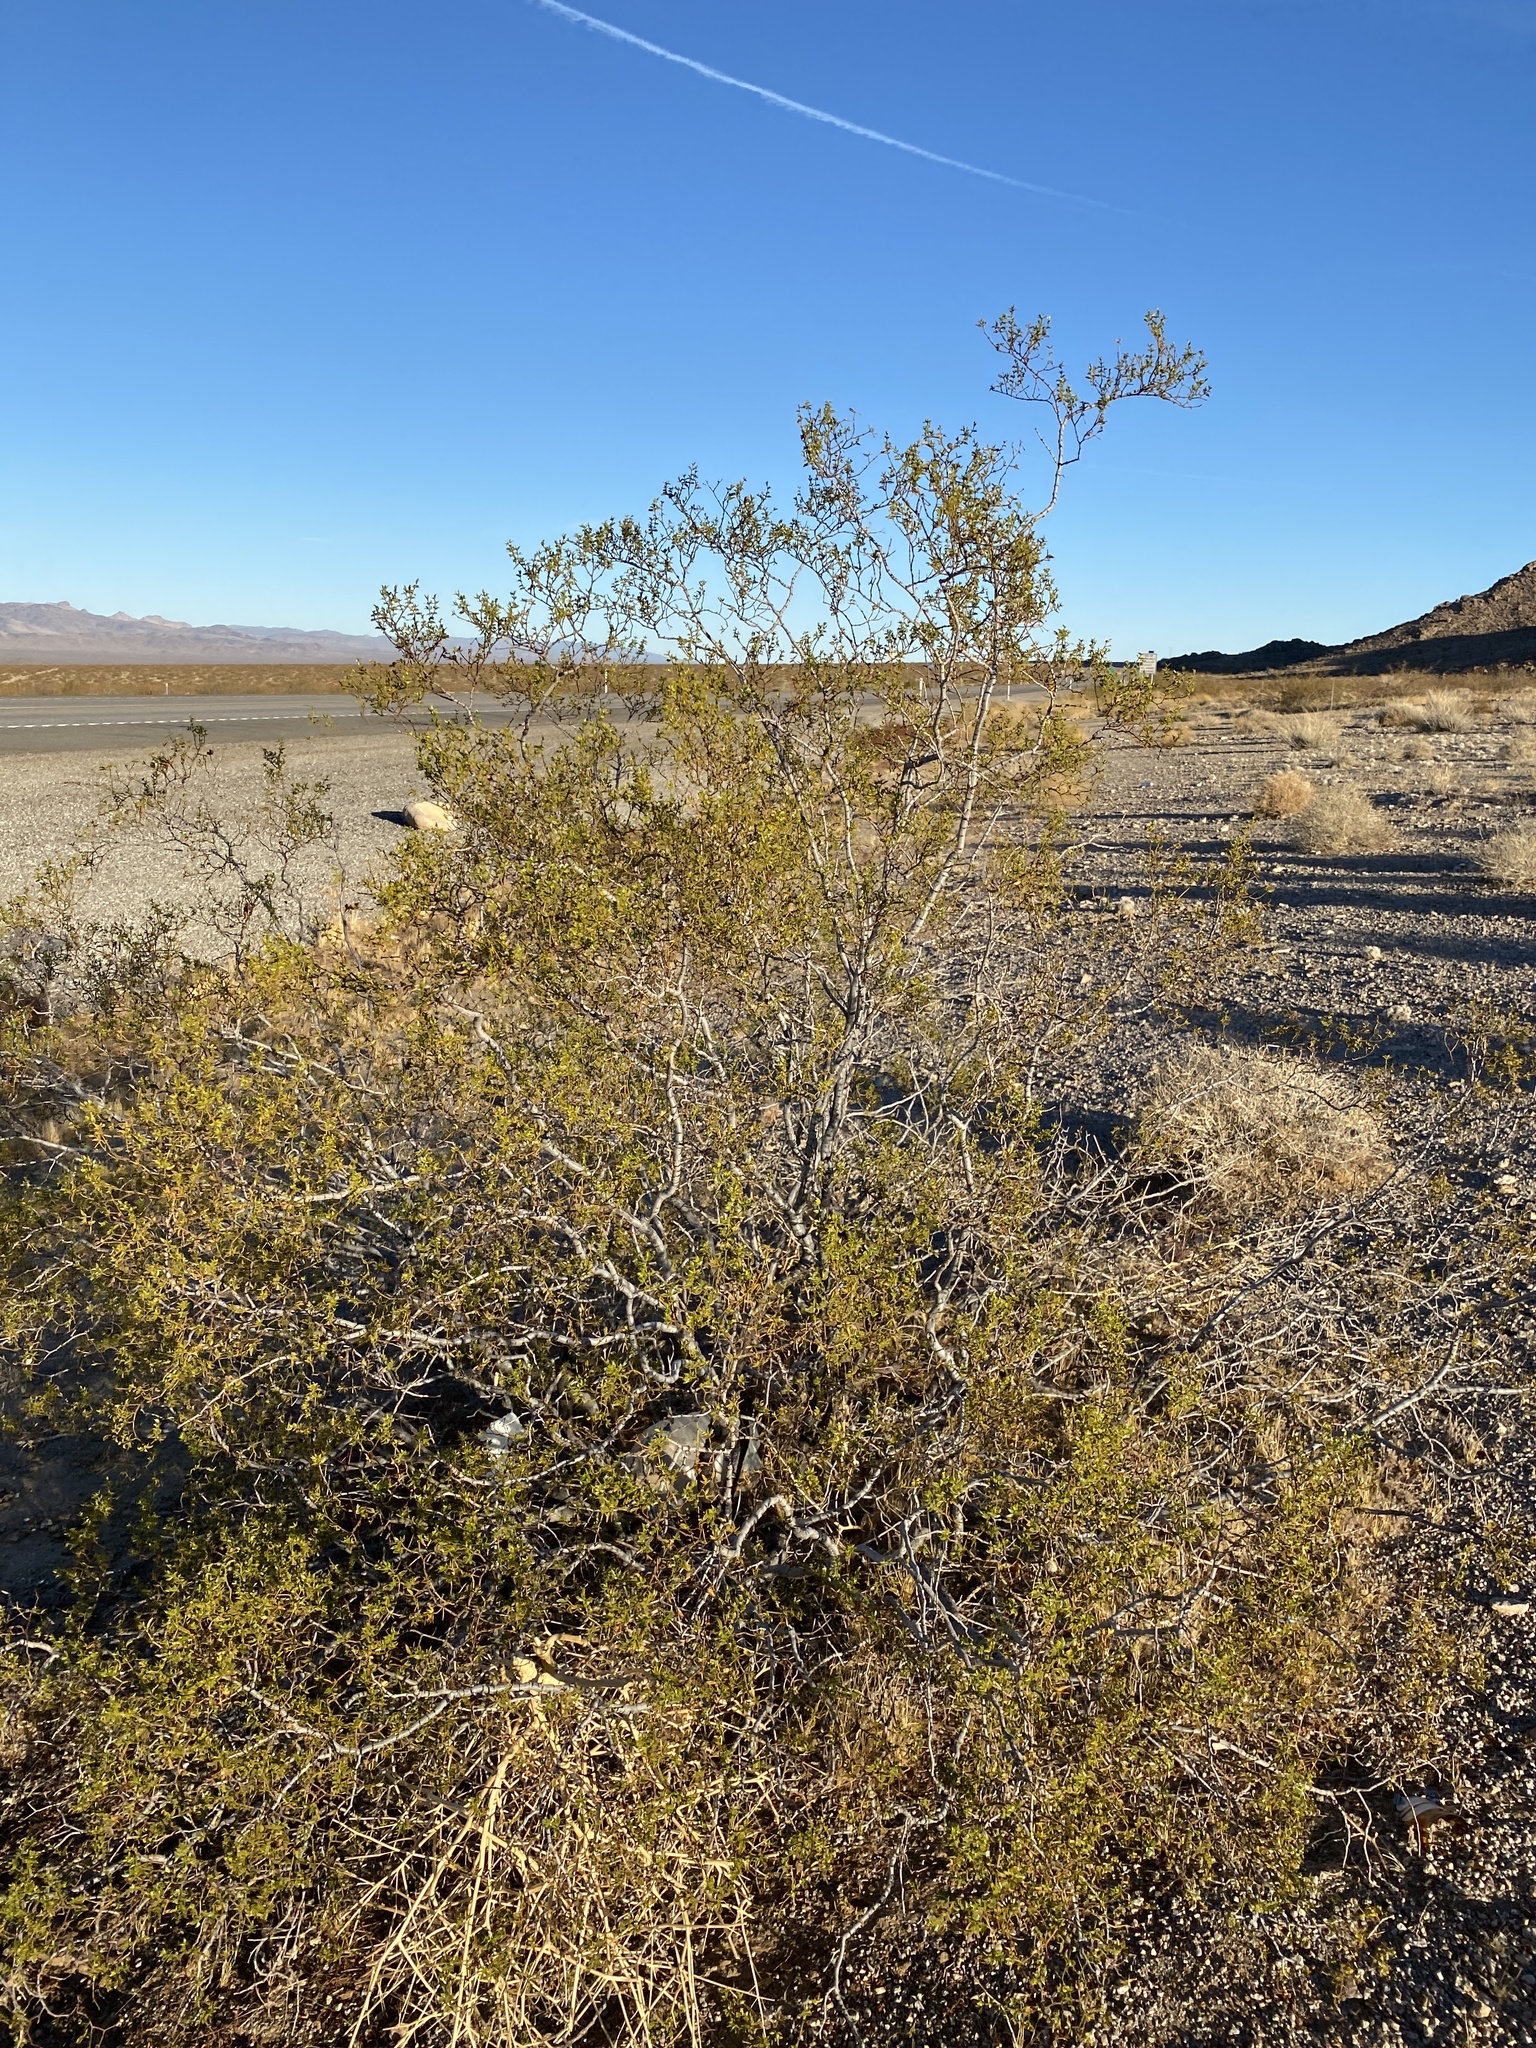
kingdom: Plantae
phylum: Tracheophyta
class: Magnoliopsida
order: Zygophyllales
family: Zygophyllaceae
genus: Larrea
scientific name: Larrea tridentata
